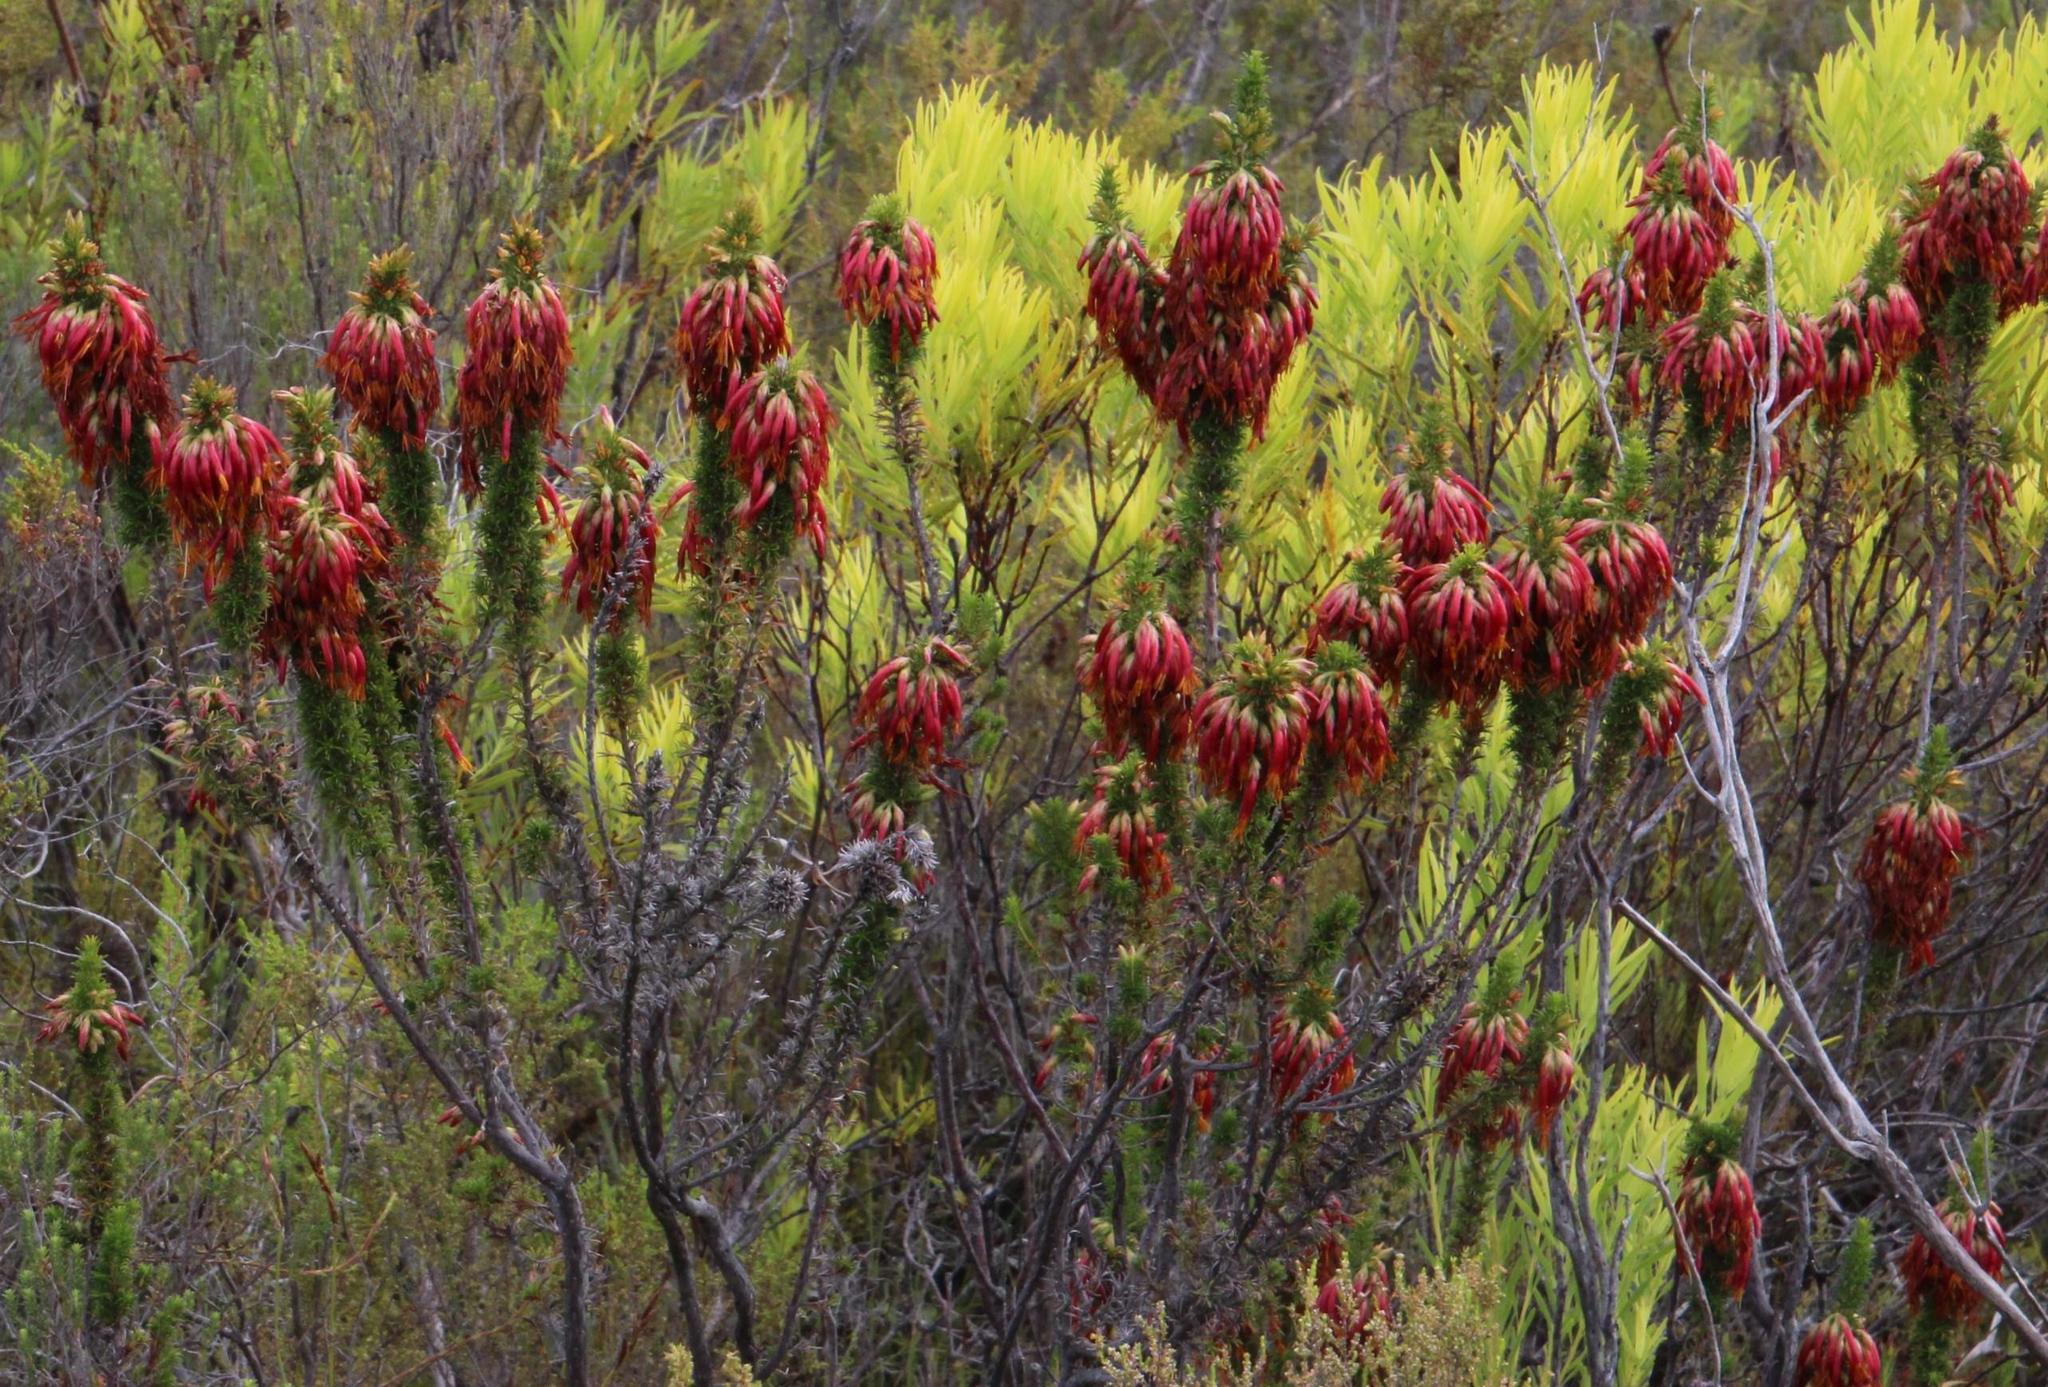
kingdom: Plantae
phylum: Tracheophyta
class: Magnoliopsida
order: Ericales
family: Ericaceae
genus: Erica
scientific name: Erica coccinea
